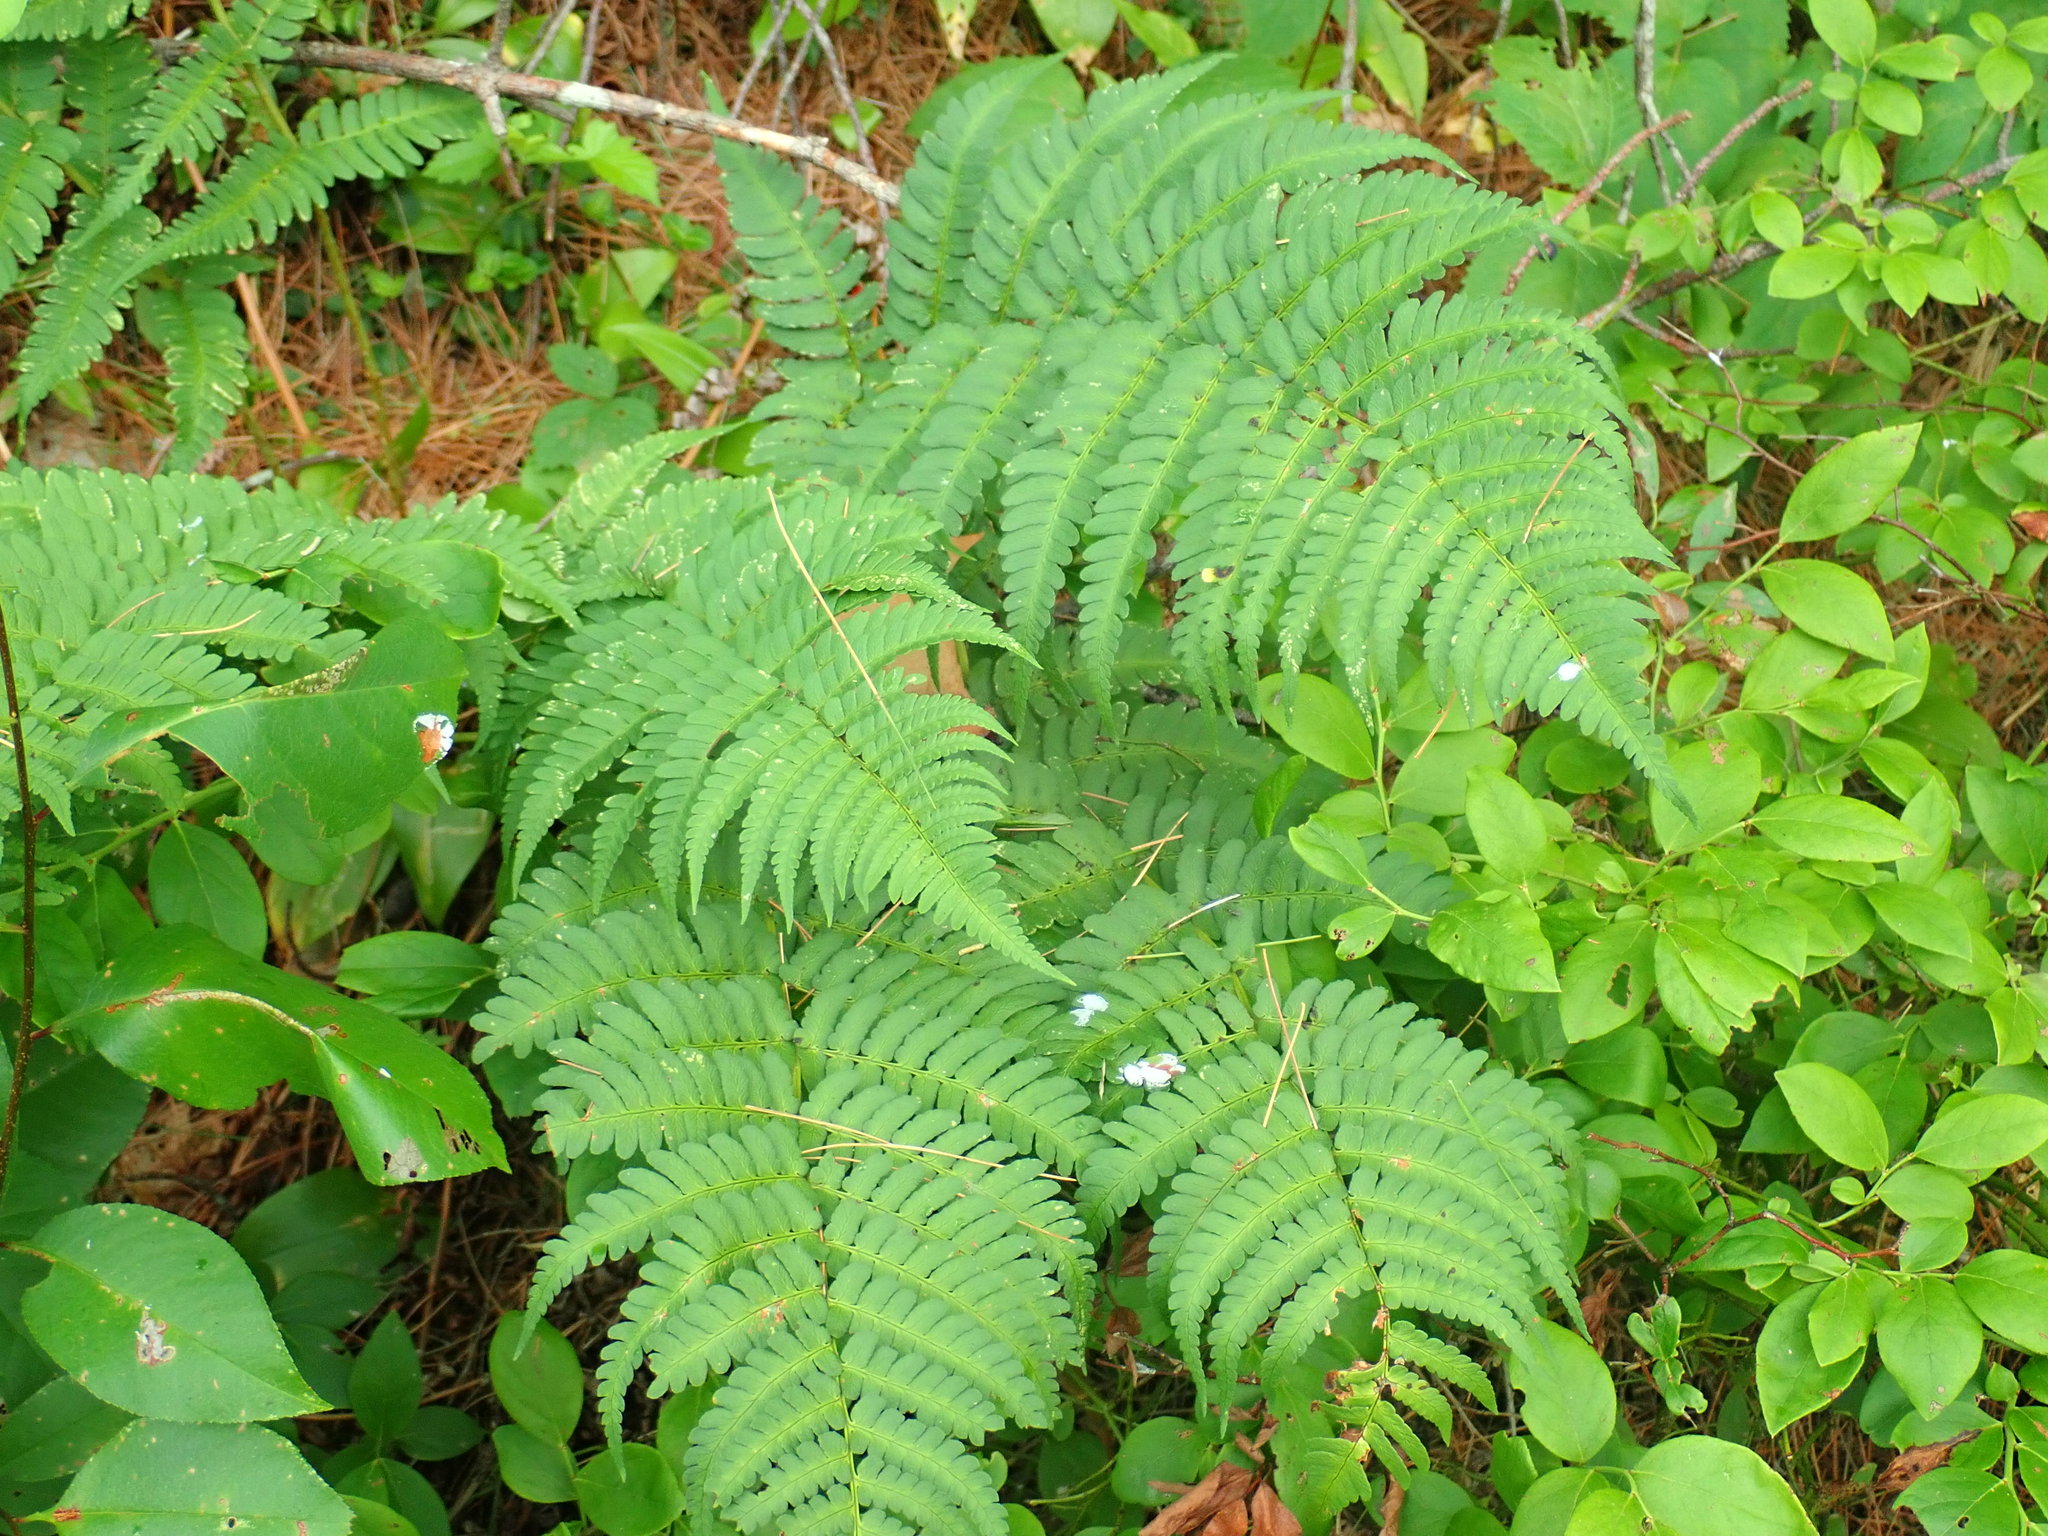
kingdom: Plantae
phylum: Tracheophyta
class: Polypodiopsida
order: Polypodiales
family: Dryopteridaceae
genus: Dryopteris
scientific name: Dryopteris marginalis
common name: Marginal wood fern
